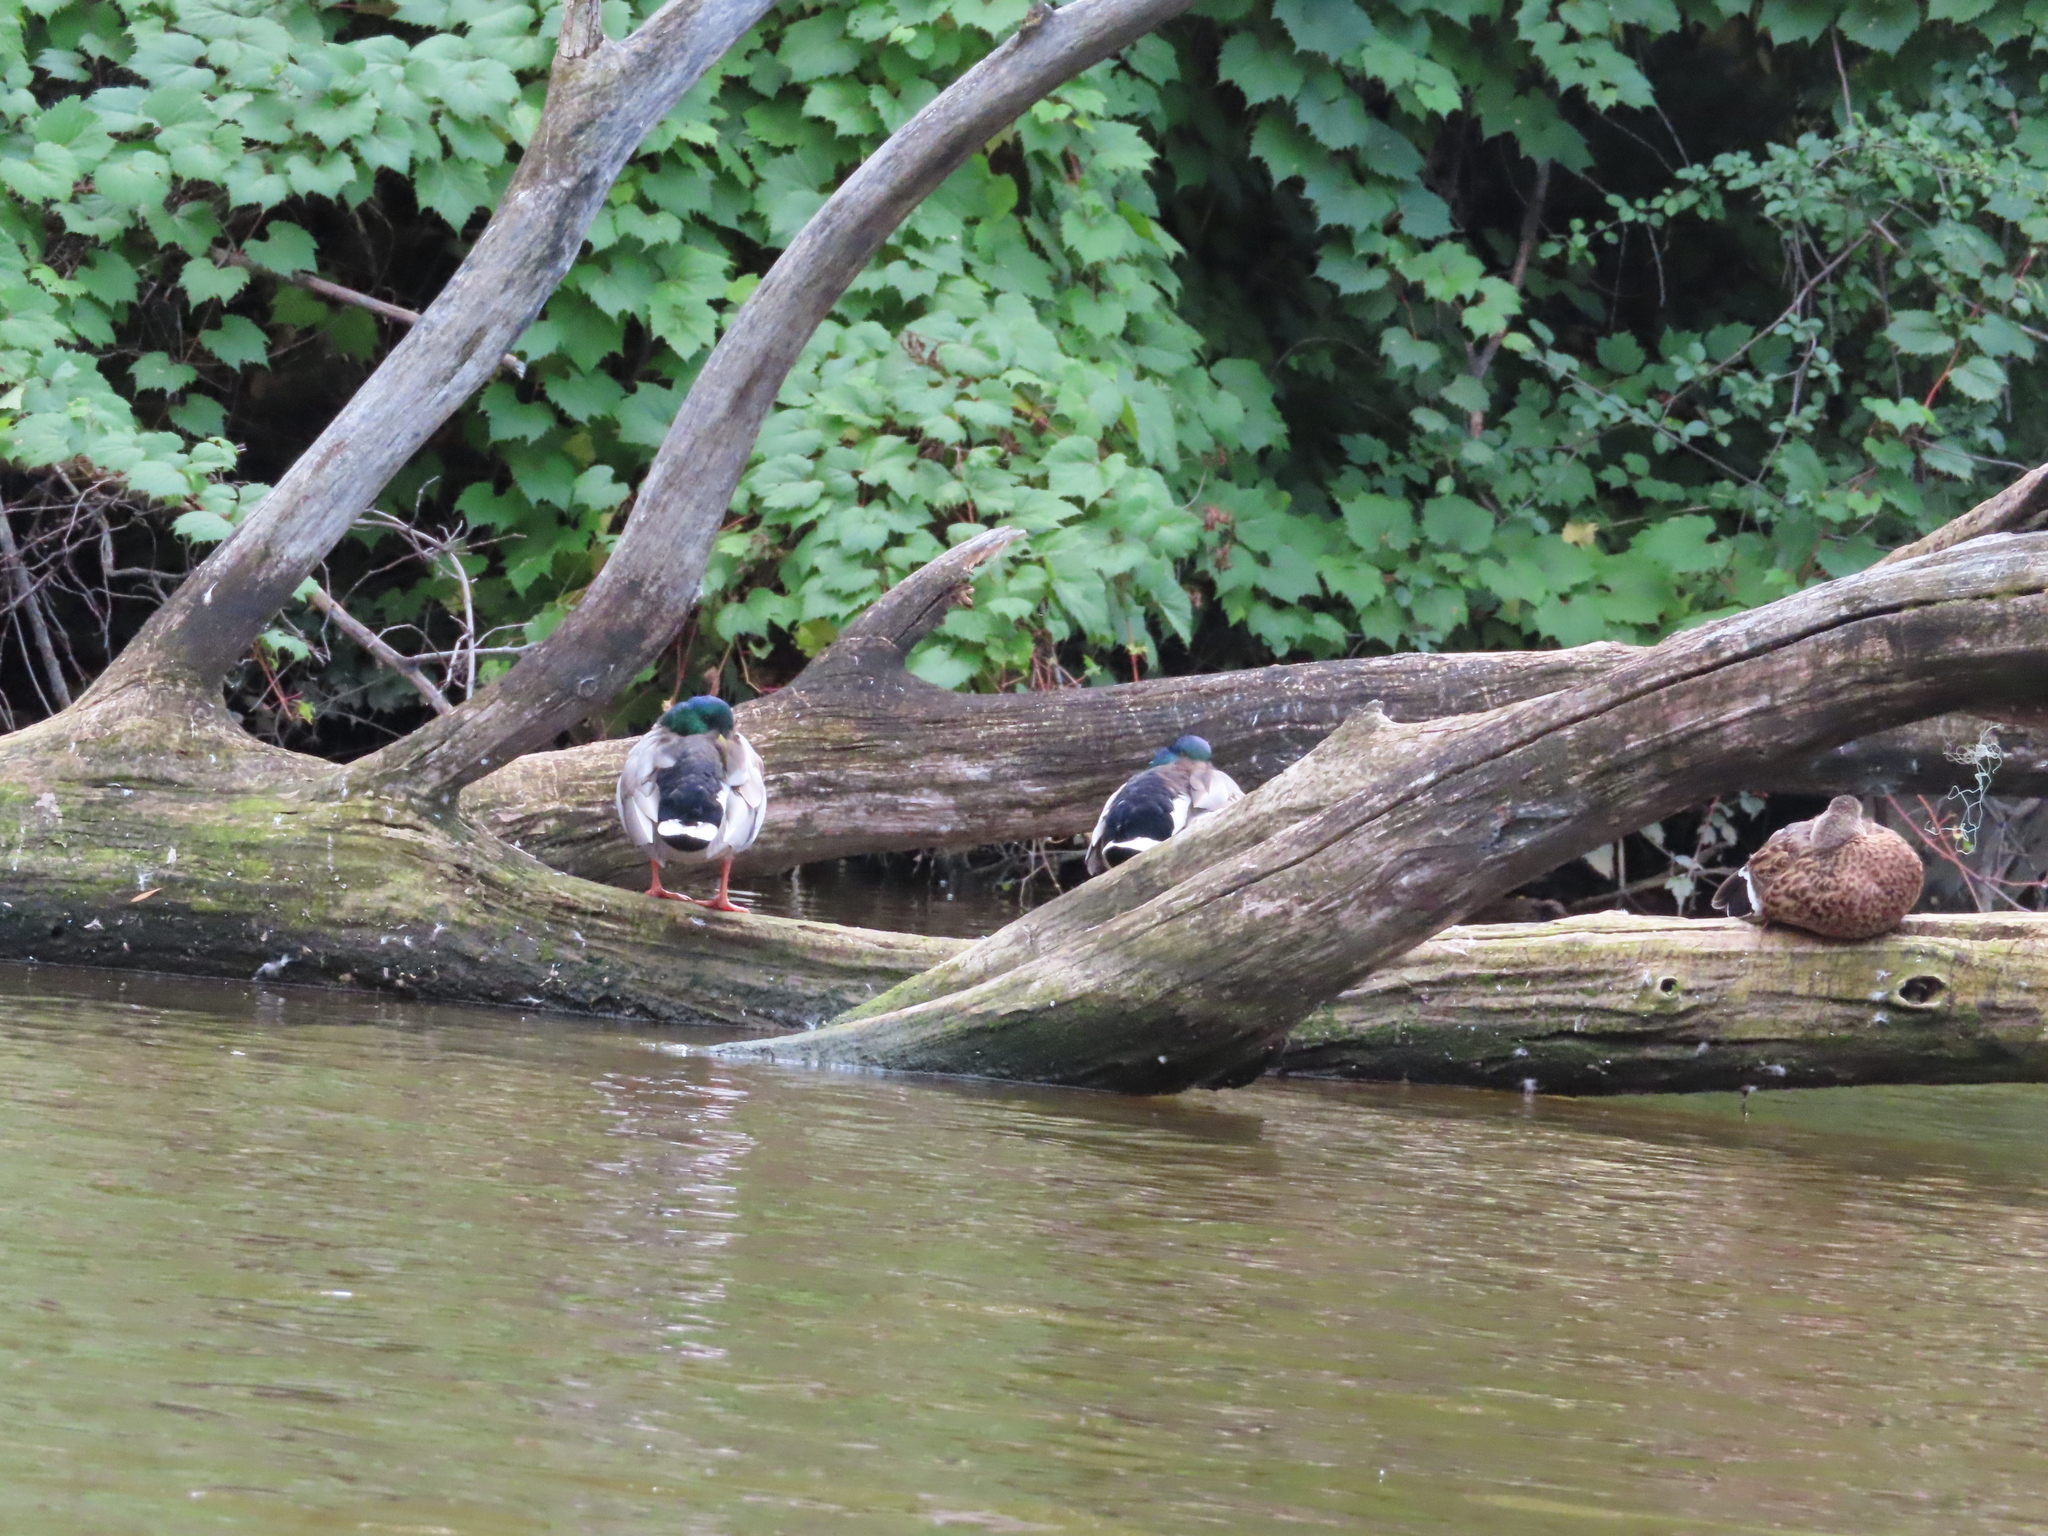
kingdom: Animalia
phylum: Chordata
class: Aves
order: Anseriformes
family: Anatidae
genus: Anas
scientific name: Anas platyrhynchos
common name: Mallard
